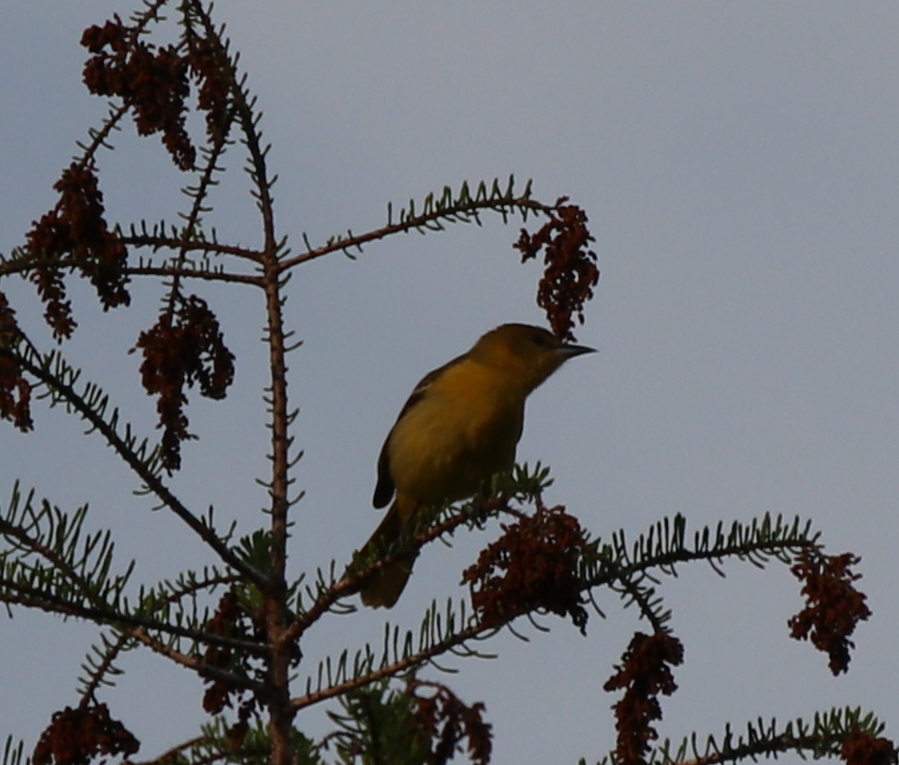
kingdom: Animalia
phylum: Chordata
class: Aves
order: Passeriformes
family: Icteridae
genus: Icterus
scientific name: Icterus galbula
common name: Baltimore oriole
